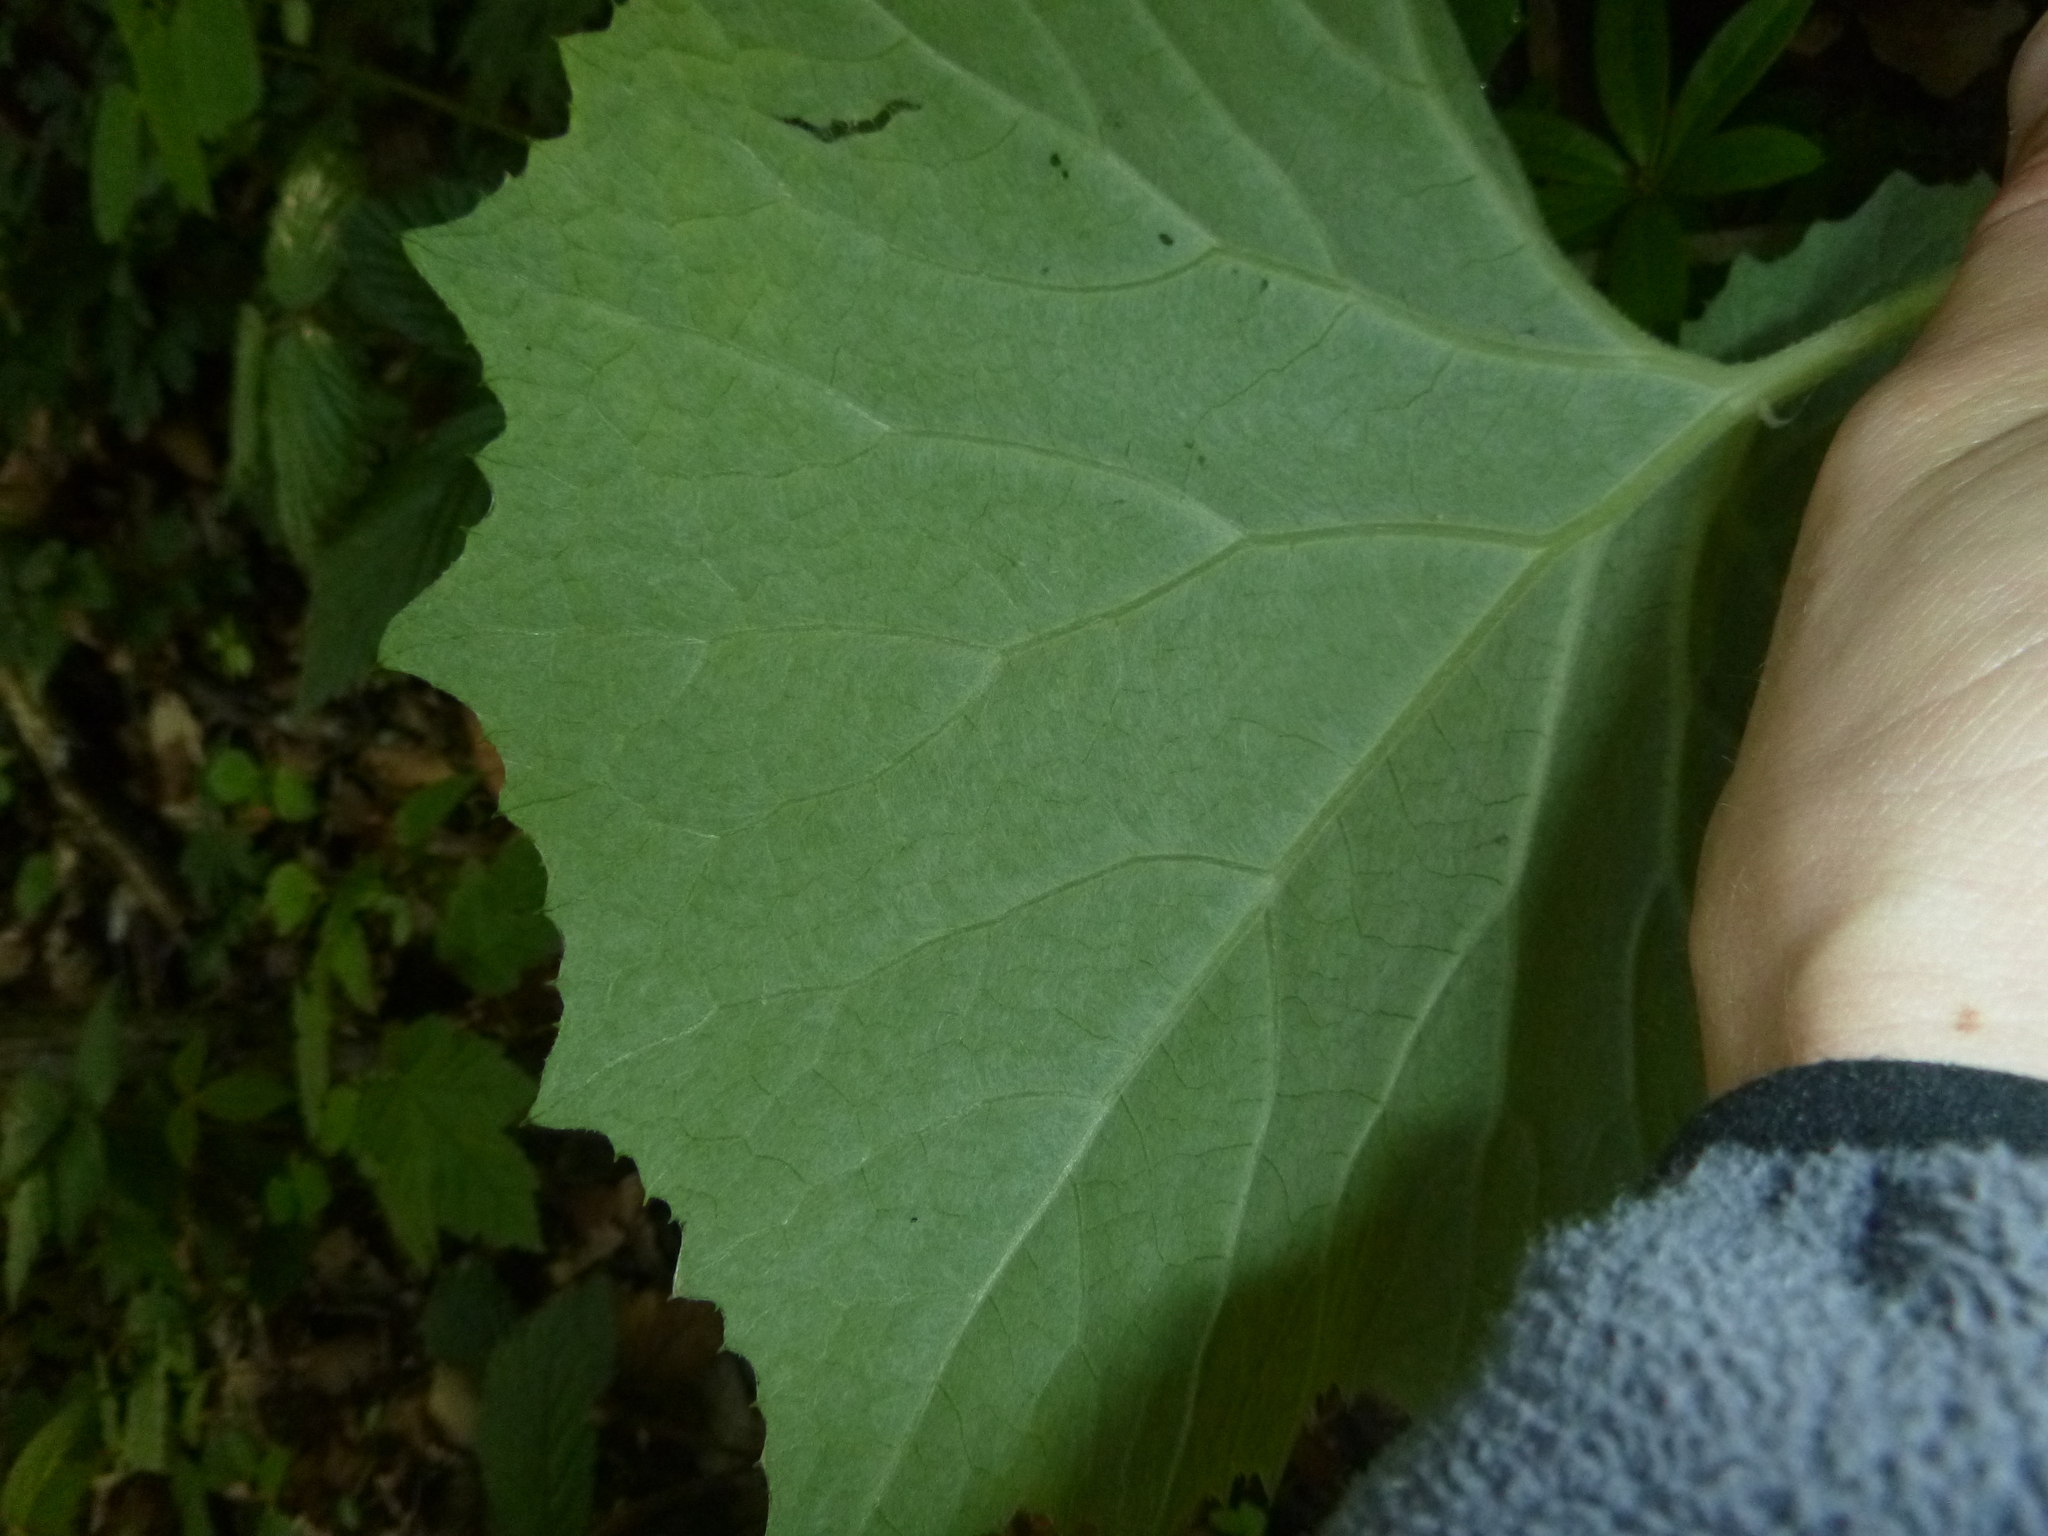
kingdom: Plantae
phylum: Tracheophyta
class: Magnoliopsida
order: Asterales
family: Asteraceae
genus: Petasites
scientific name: Petasites albus
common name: White butterbur
